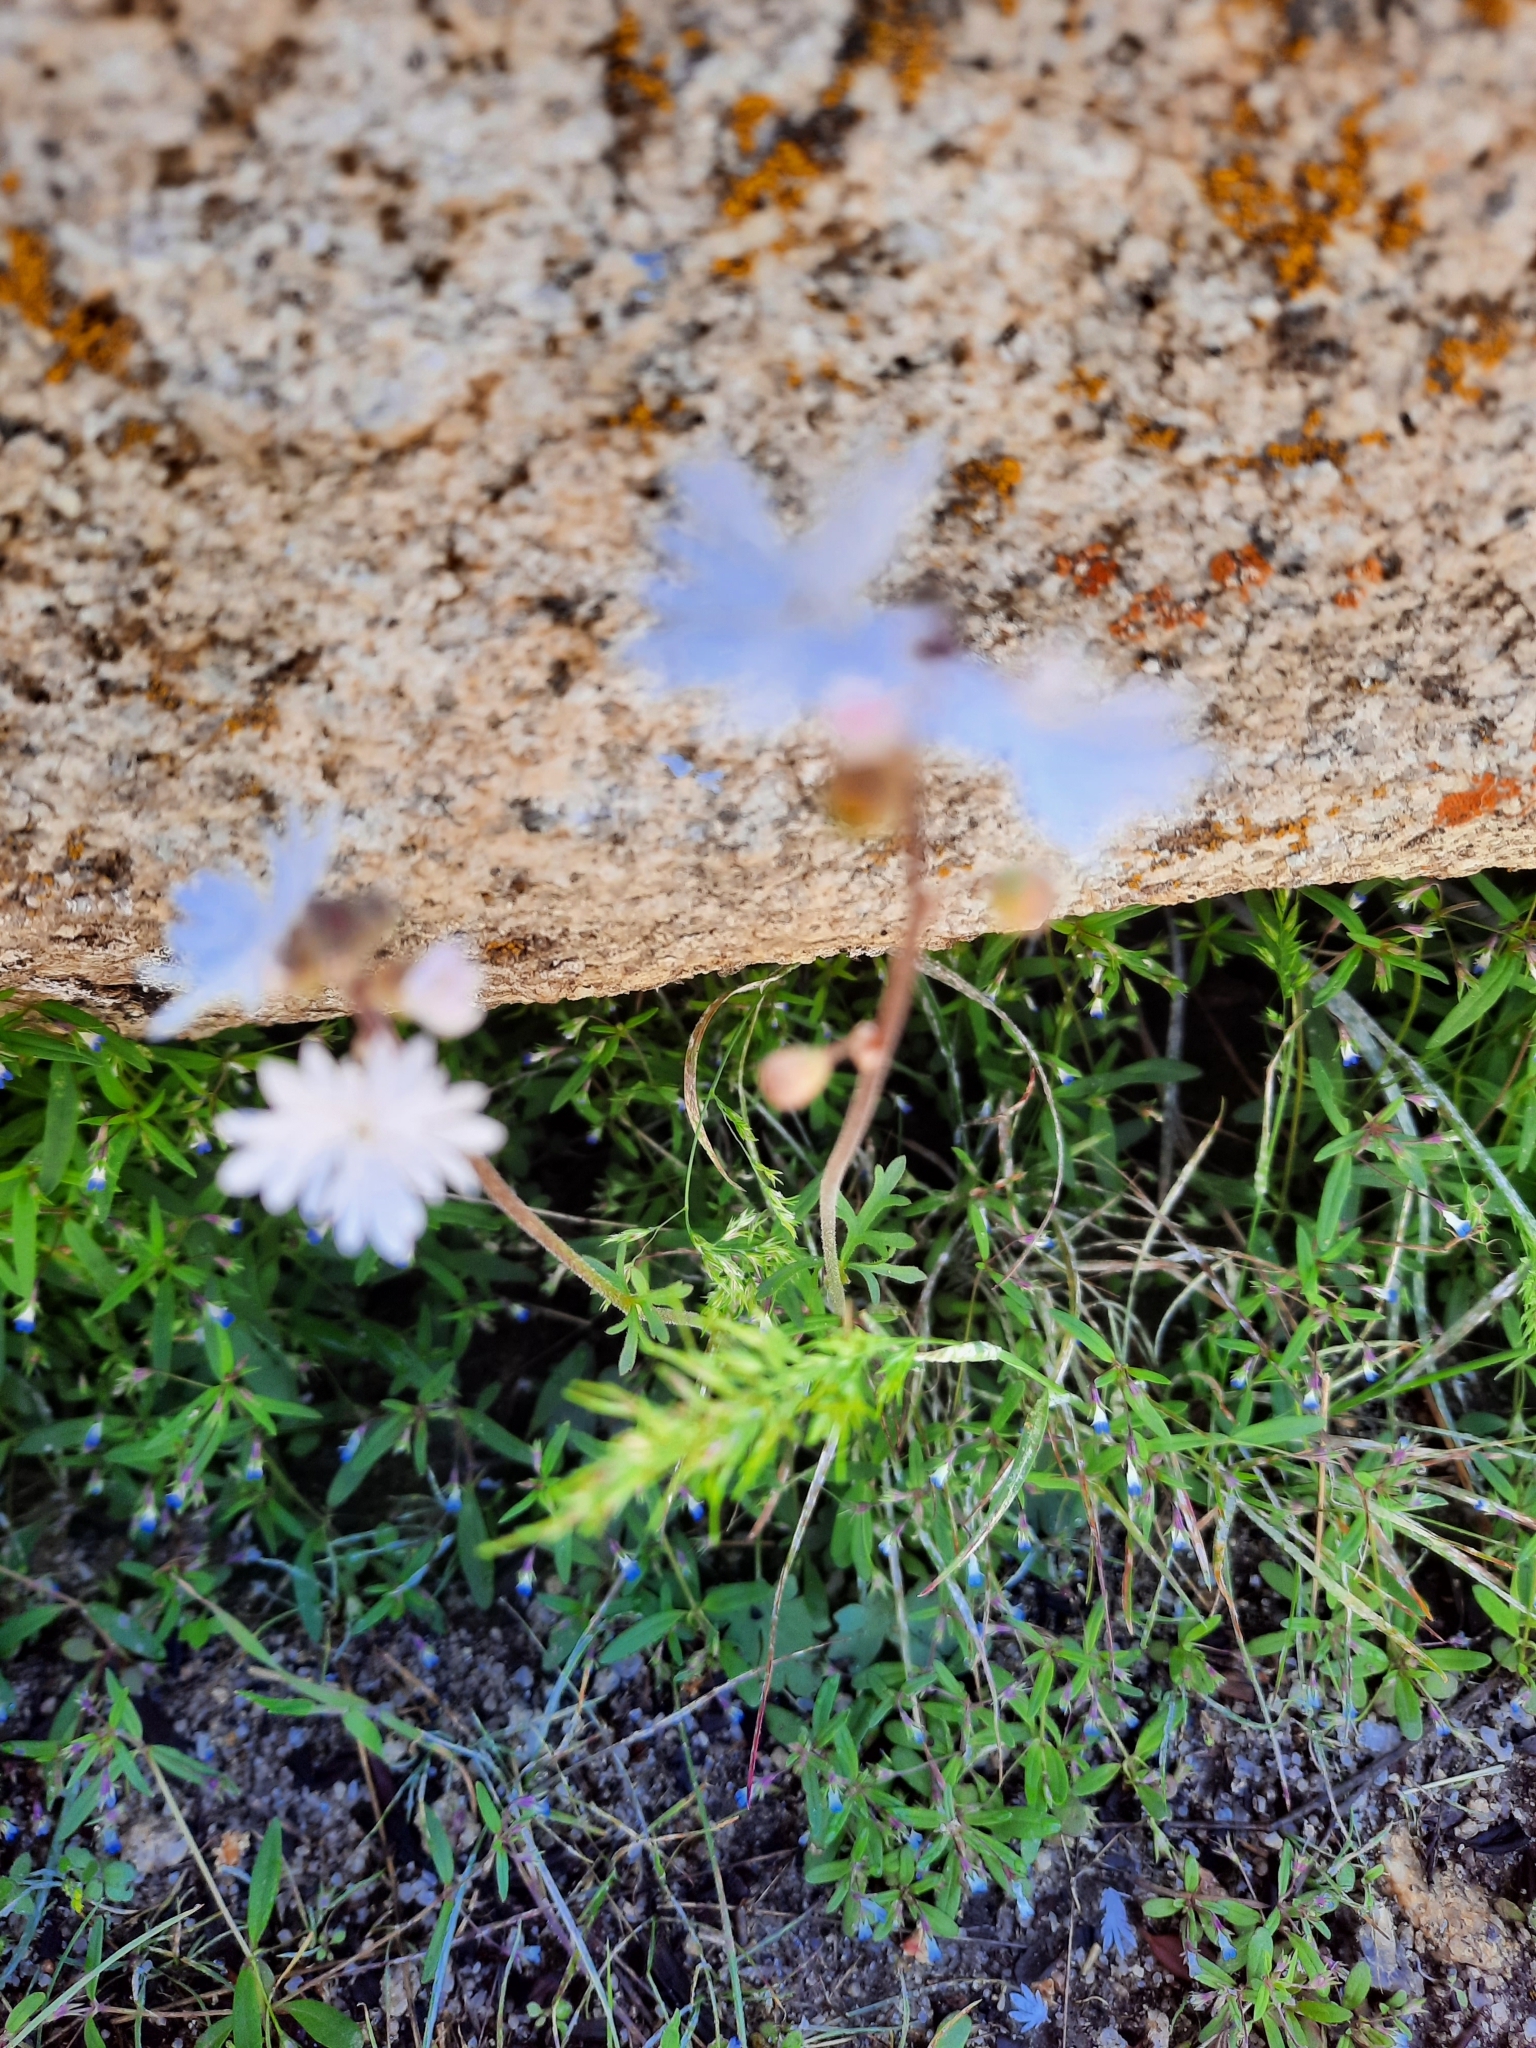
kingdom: Plantae
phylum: Tracheophyta
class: Magnoliopsida
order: Saxifragales
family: Saxifragaceae
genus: Lithophragma
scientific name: Lithophragma tenella
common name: Slender fringe-cup
